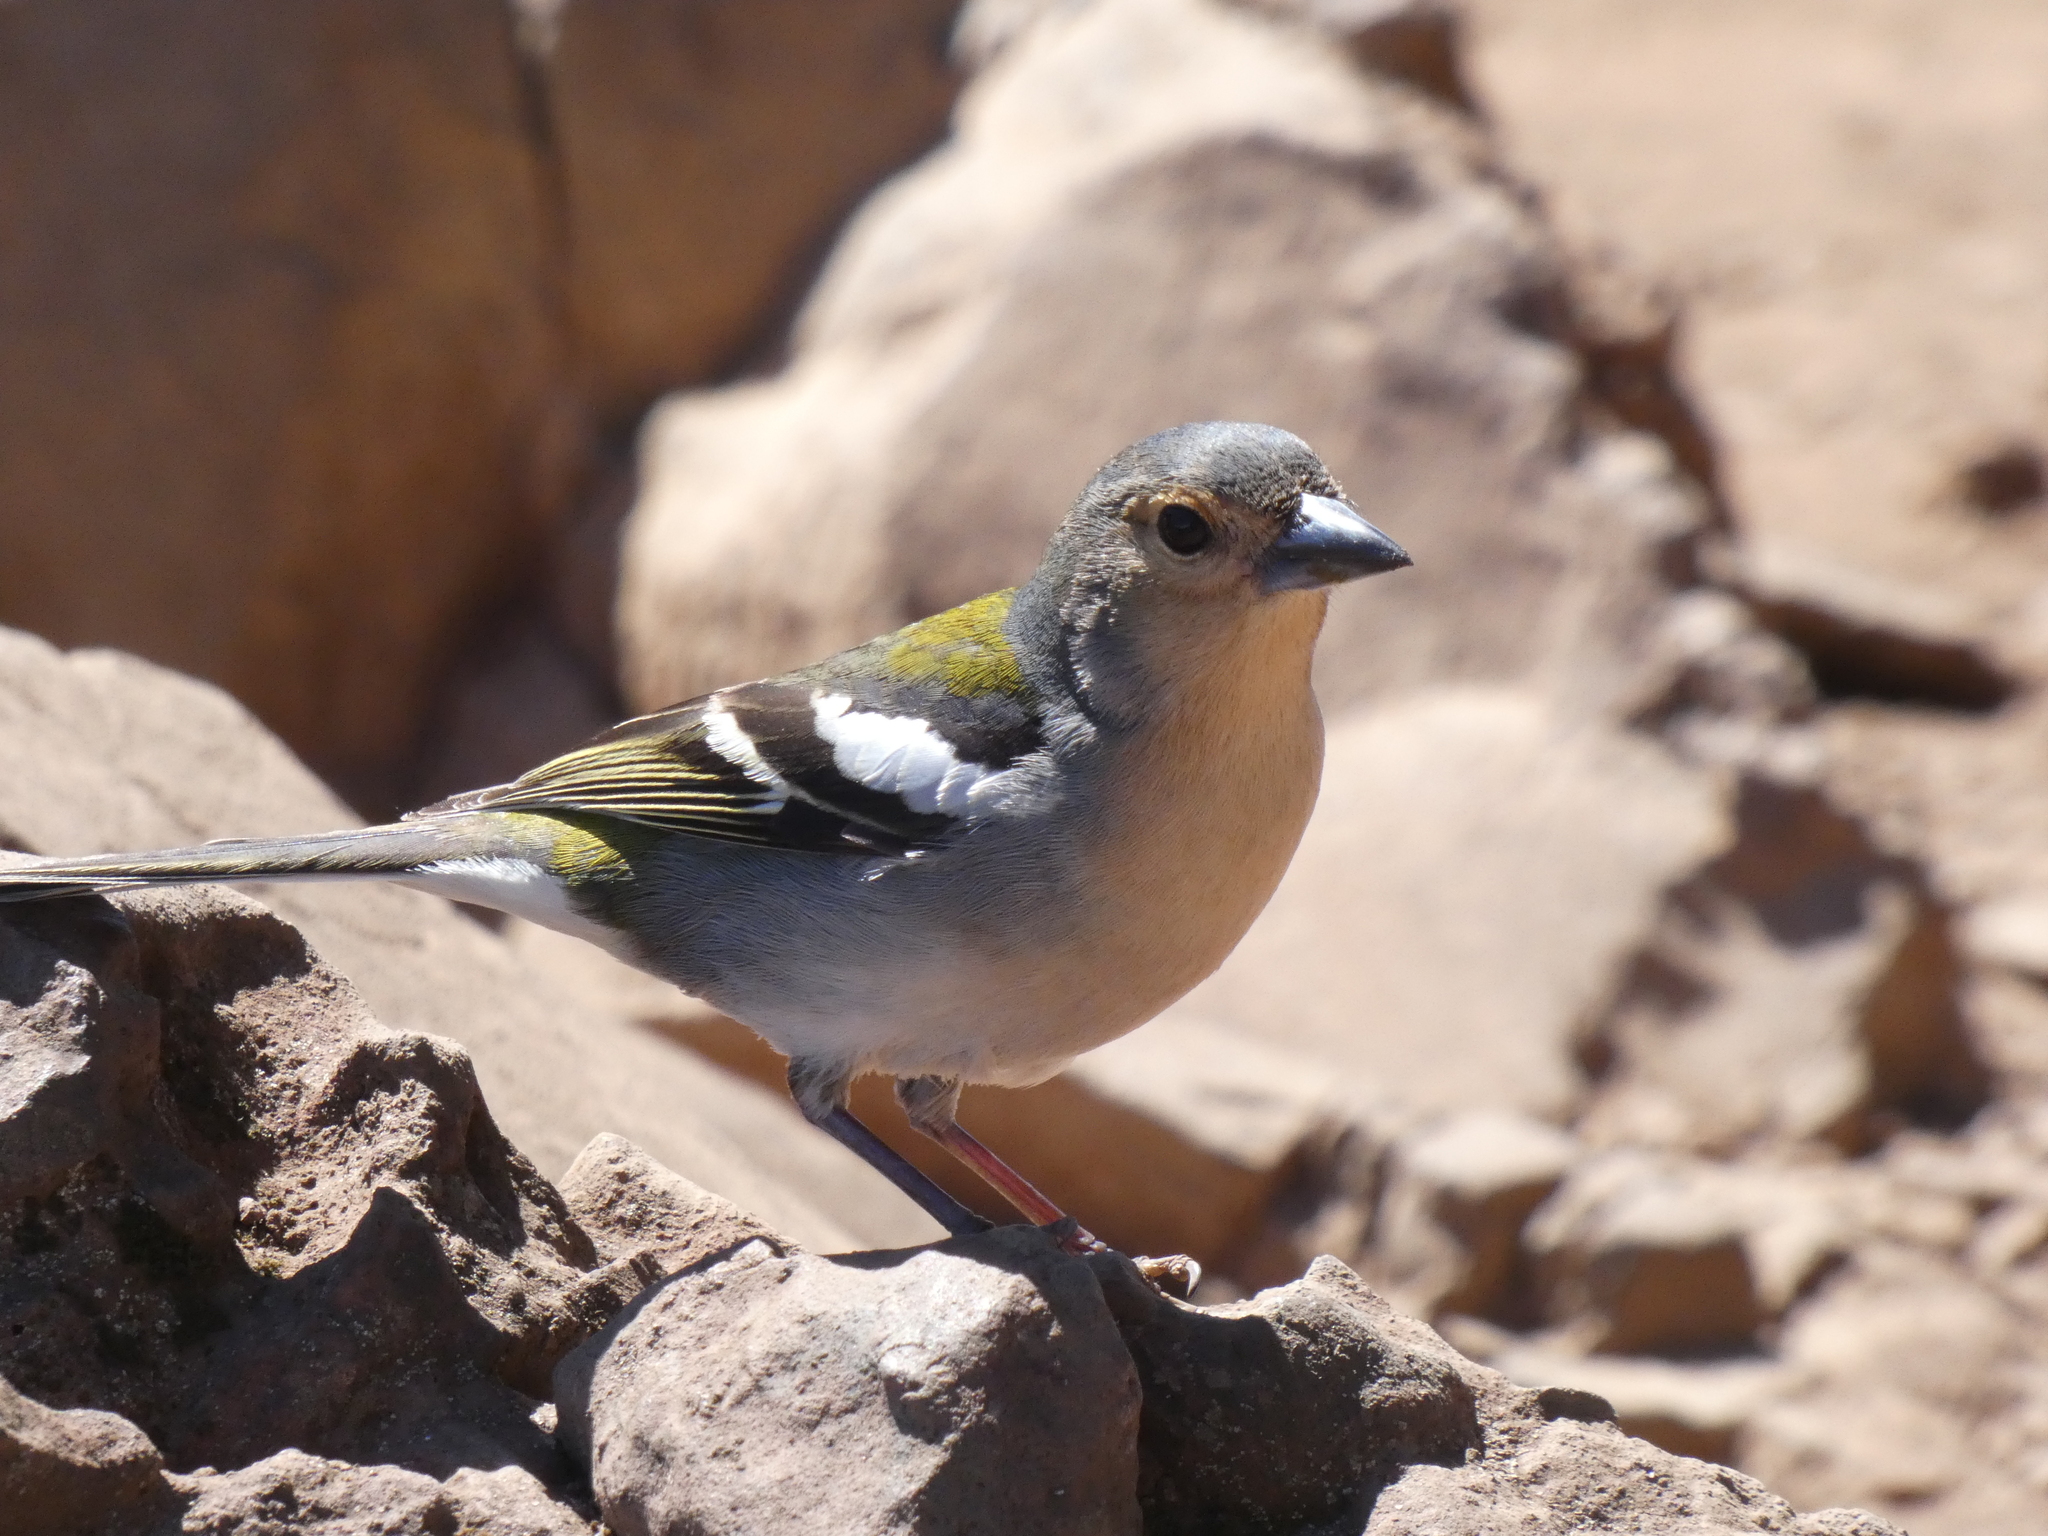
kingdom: Animalia
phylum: Chordata
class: Aves
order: Passeriformes
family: Fringillidae
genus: Fringilla
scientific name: Fringilla maderensis
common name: Madeira chaffinch
